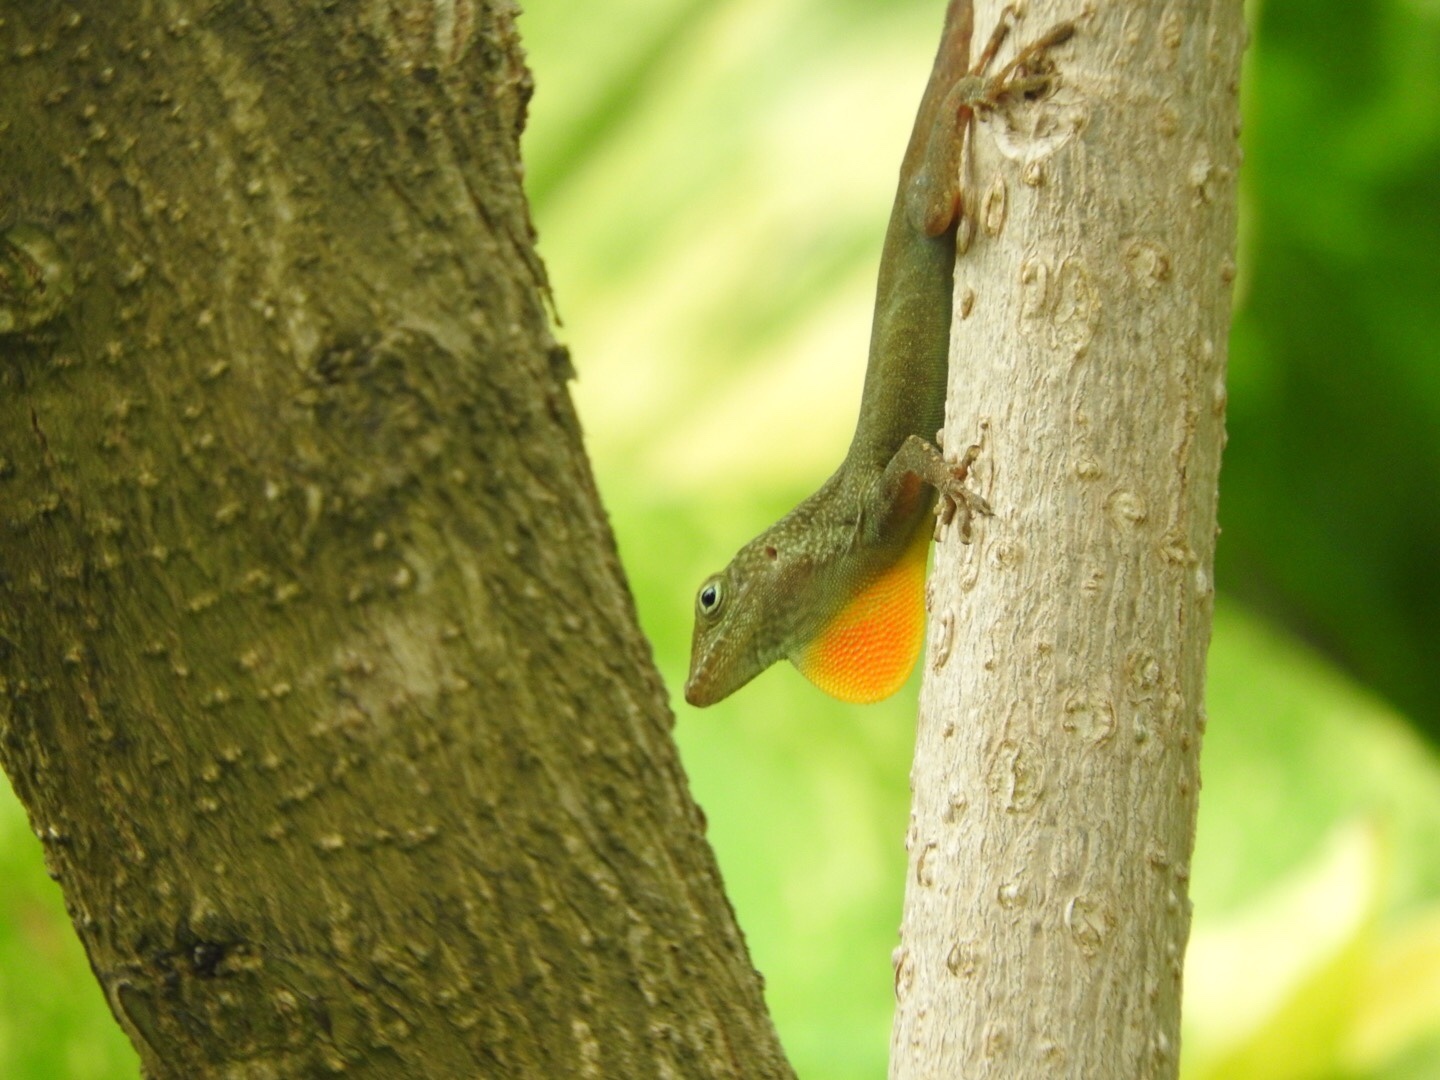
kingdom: Animalia
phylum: Chordata
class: Squamata
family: Dactyloidae
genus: Anolis
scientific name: Anolis grahami
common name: Graham's anole
